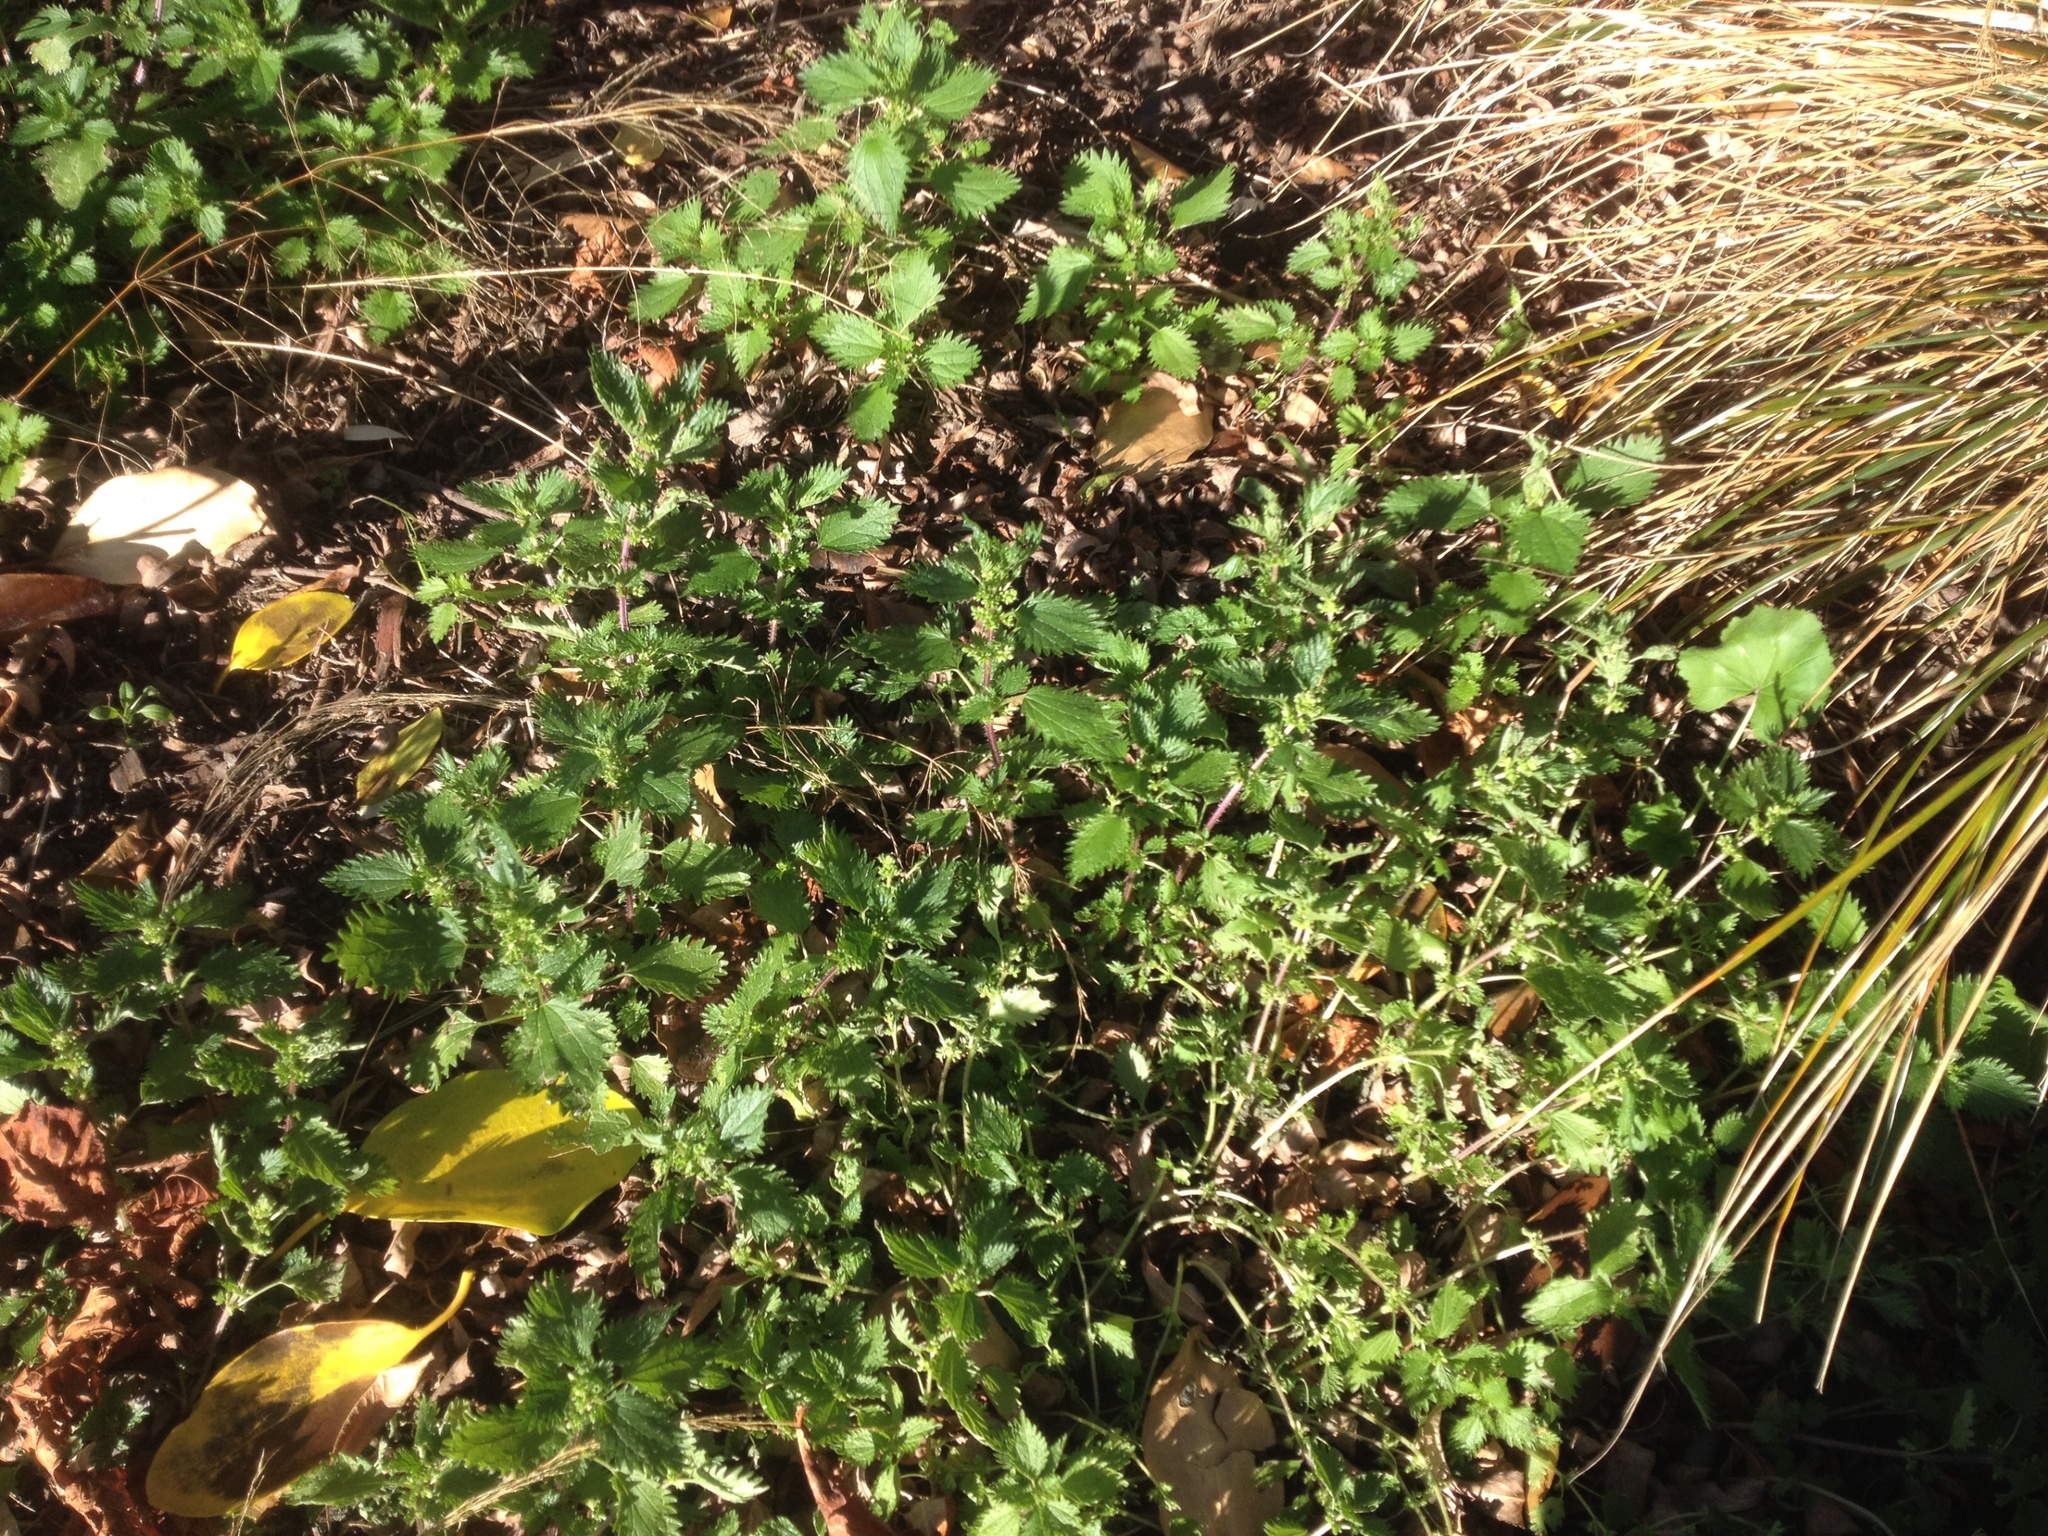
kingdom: Plantae
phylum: Tracheophyta
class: Magnoliopsida
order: Rosales
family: Urticaceae
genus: Urtica
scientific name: Urtica urens
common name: Dwarf nettle
